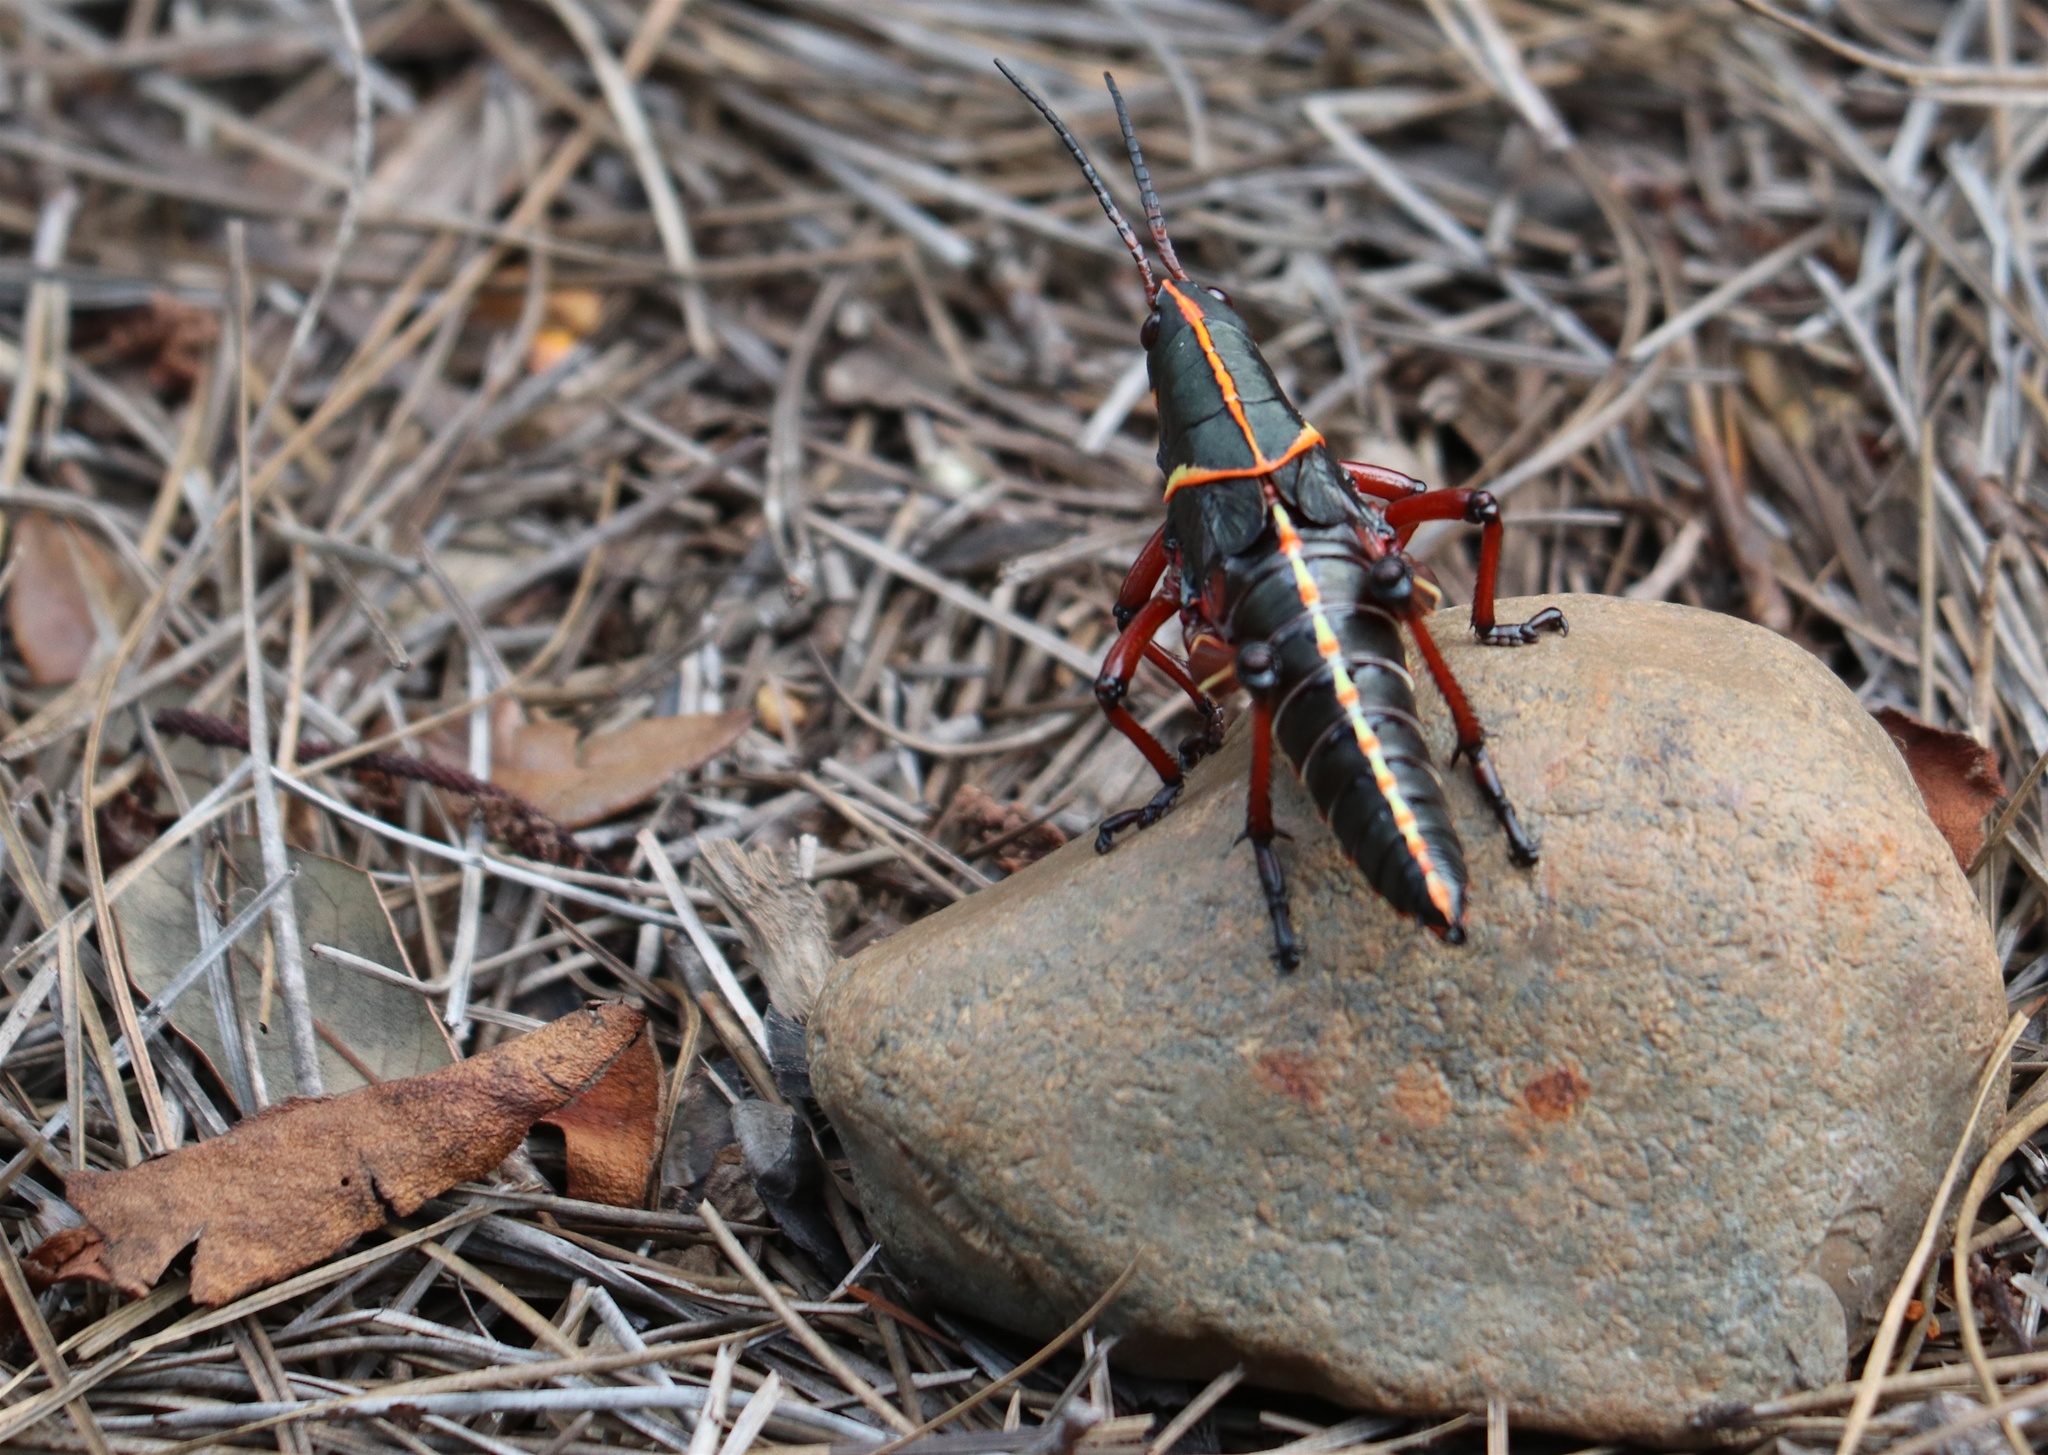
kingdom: Animalia
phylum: Arthropoda
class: Insecta
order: Orthoptera
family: Romaleidae
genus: Romalea
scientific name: Romalea microptera
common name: Eastern lubber grasshopper
